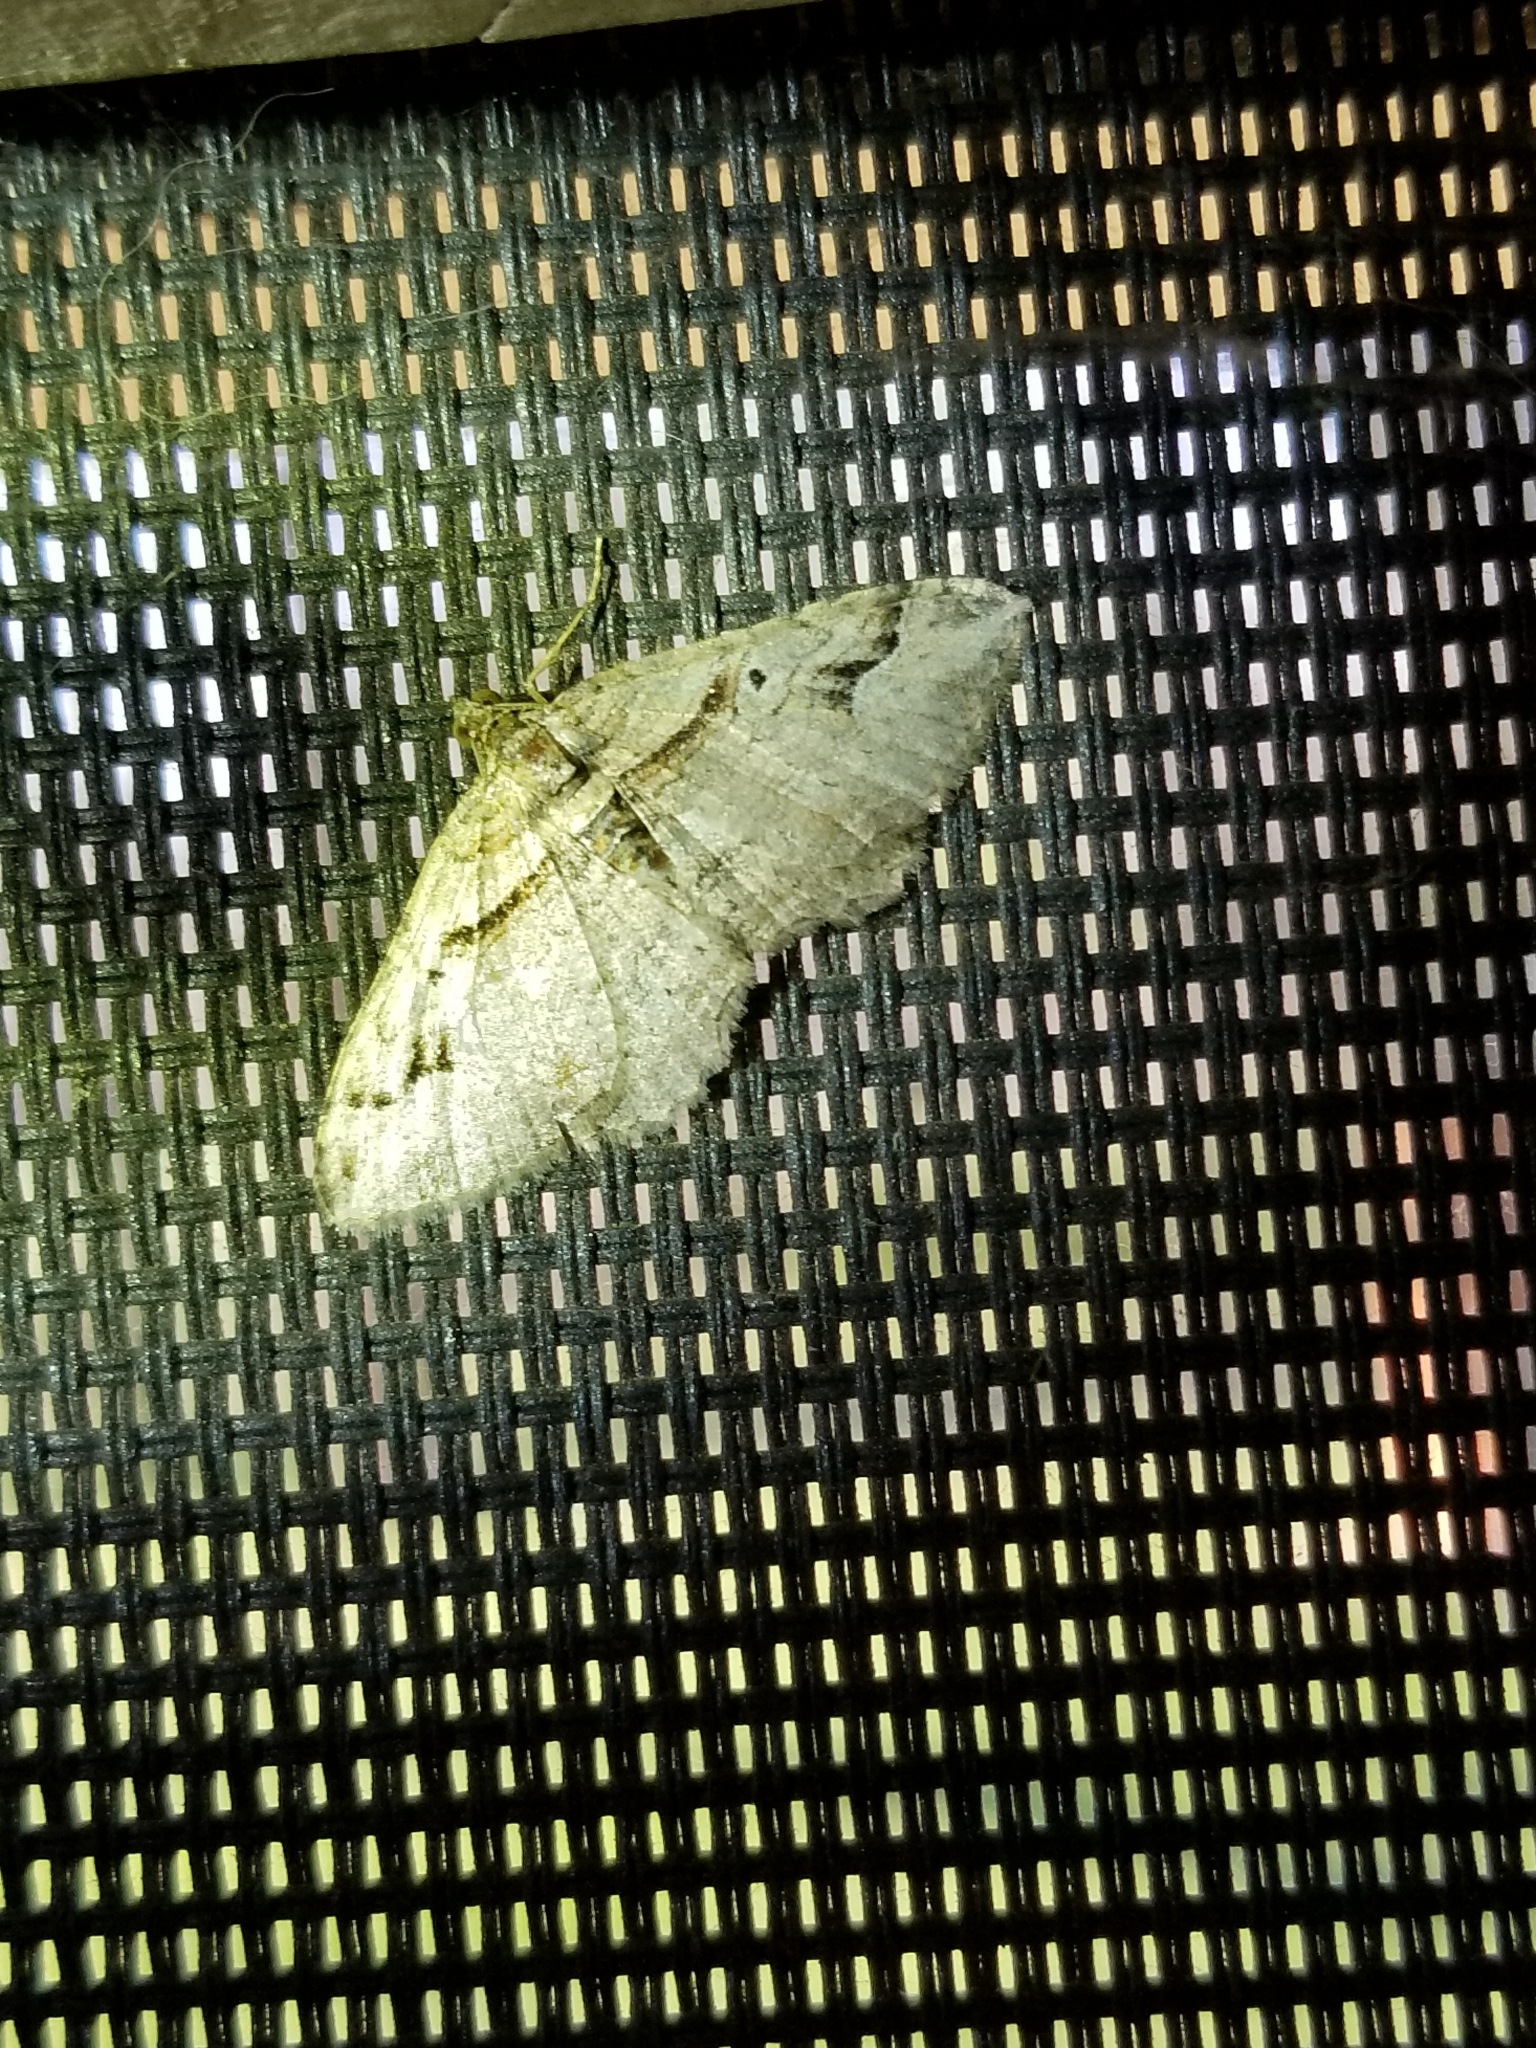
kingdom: Animalia
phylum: Arthropoda
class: Insecta
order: Lepidoptera
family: Geometridae
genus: Costaconvexa
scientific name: Costaconvexa centrostrigaria
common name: Bent-line carpet
